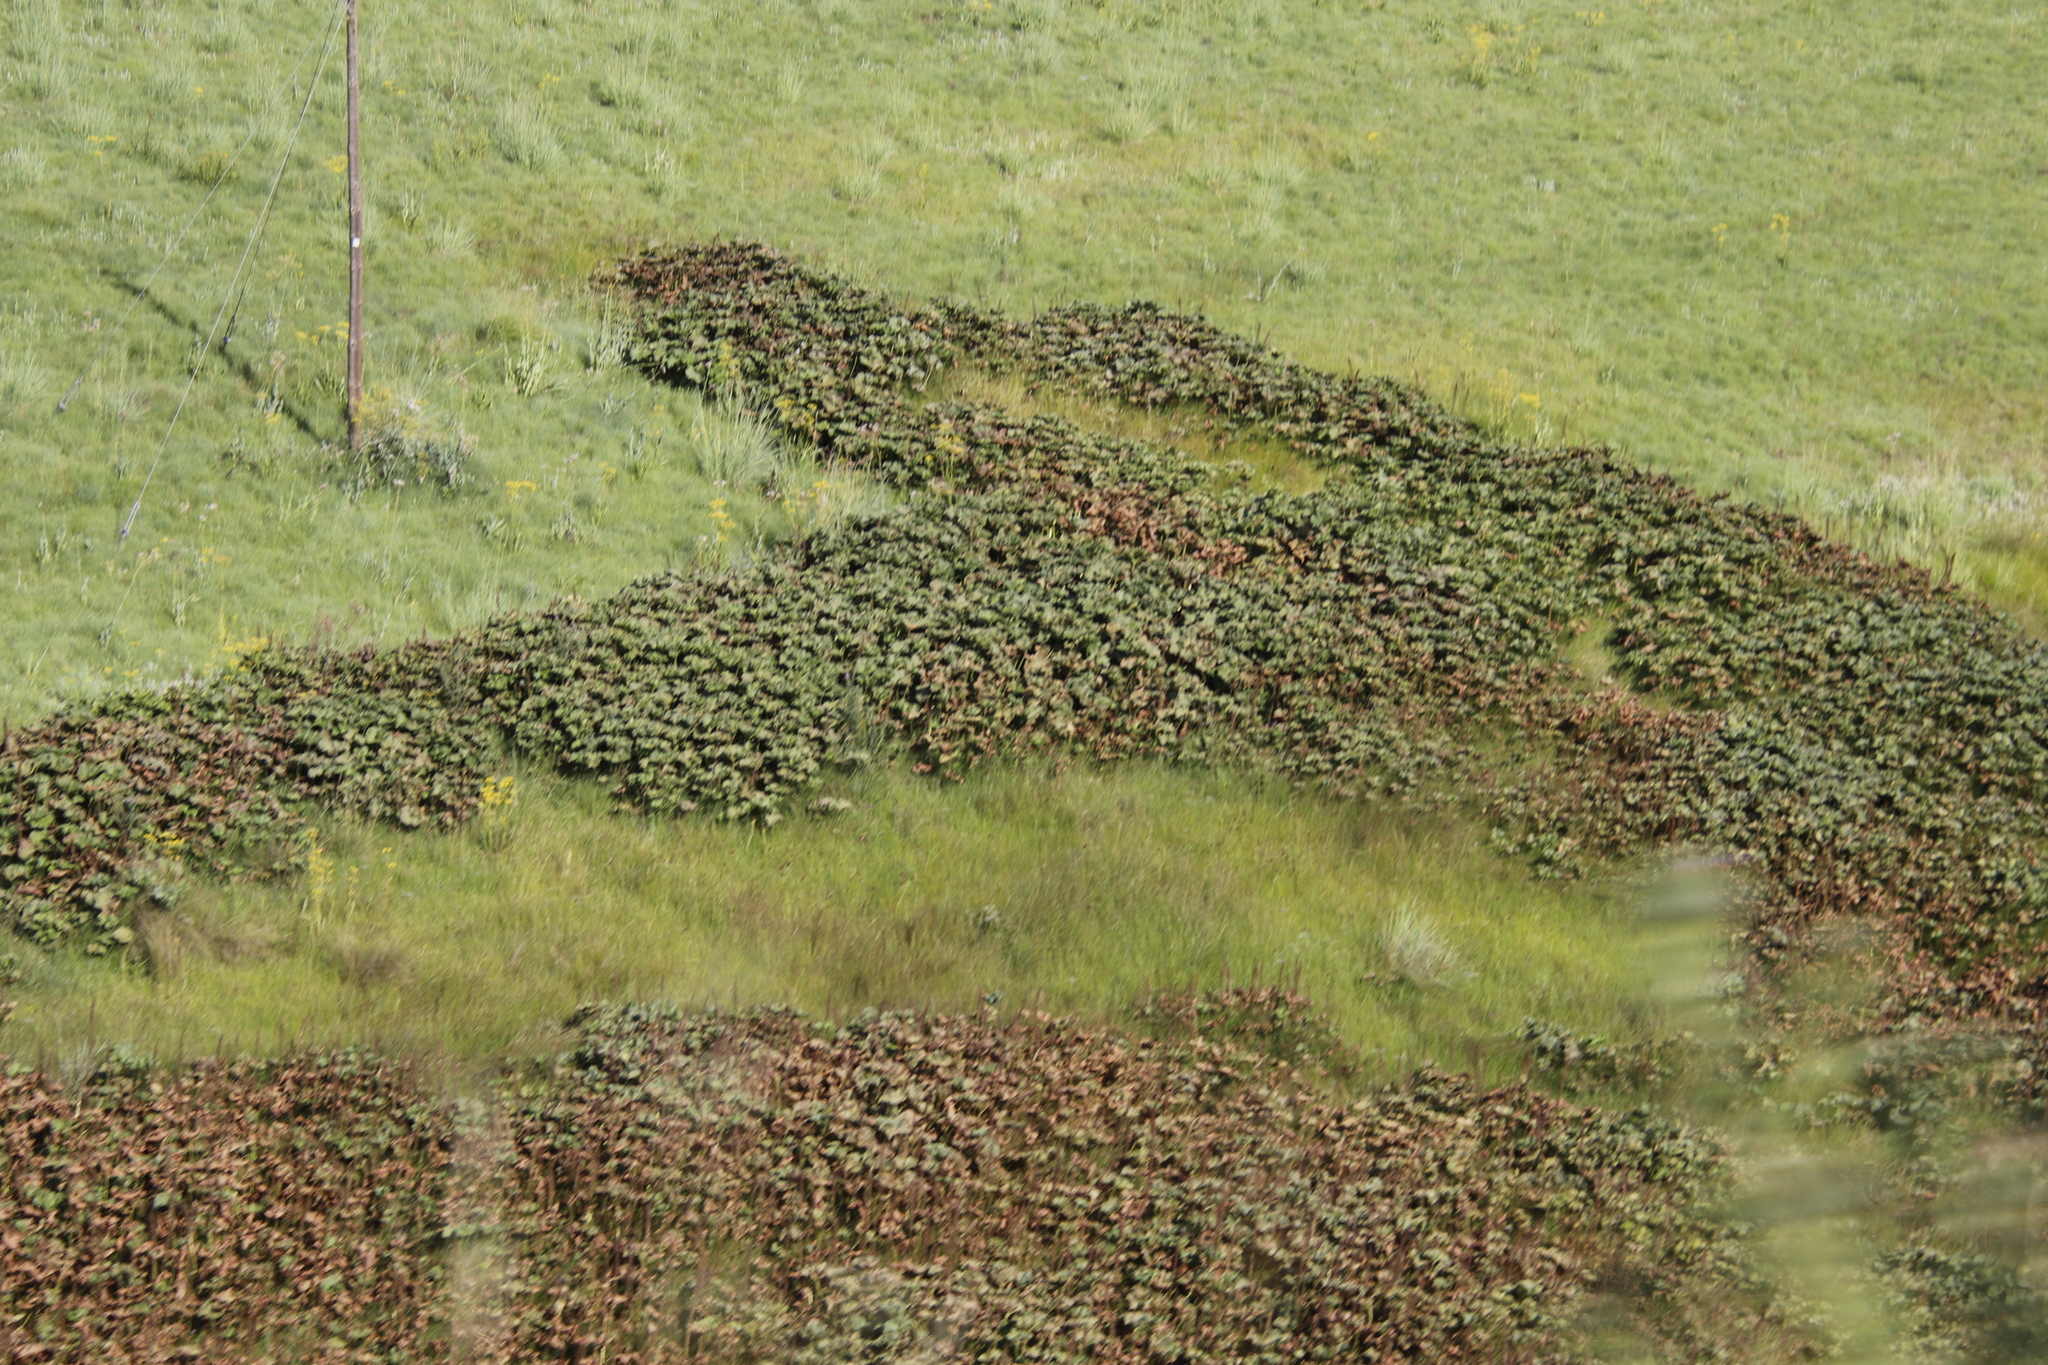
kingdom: Plantae
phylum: Tracheophyta
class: Magnoliopsida
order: Gunnerales
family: Gunneraceae
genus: Gunnera
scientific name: Gunnera perpensa
